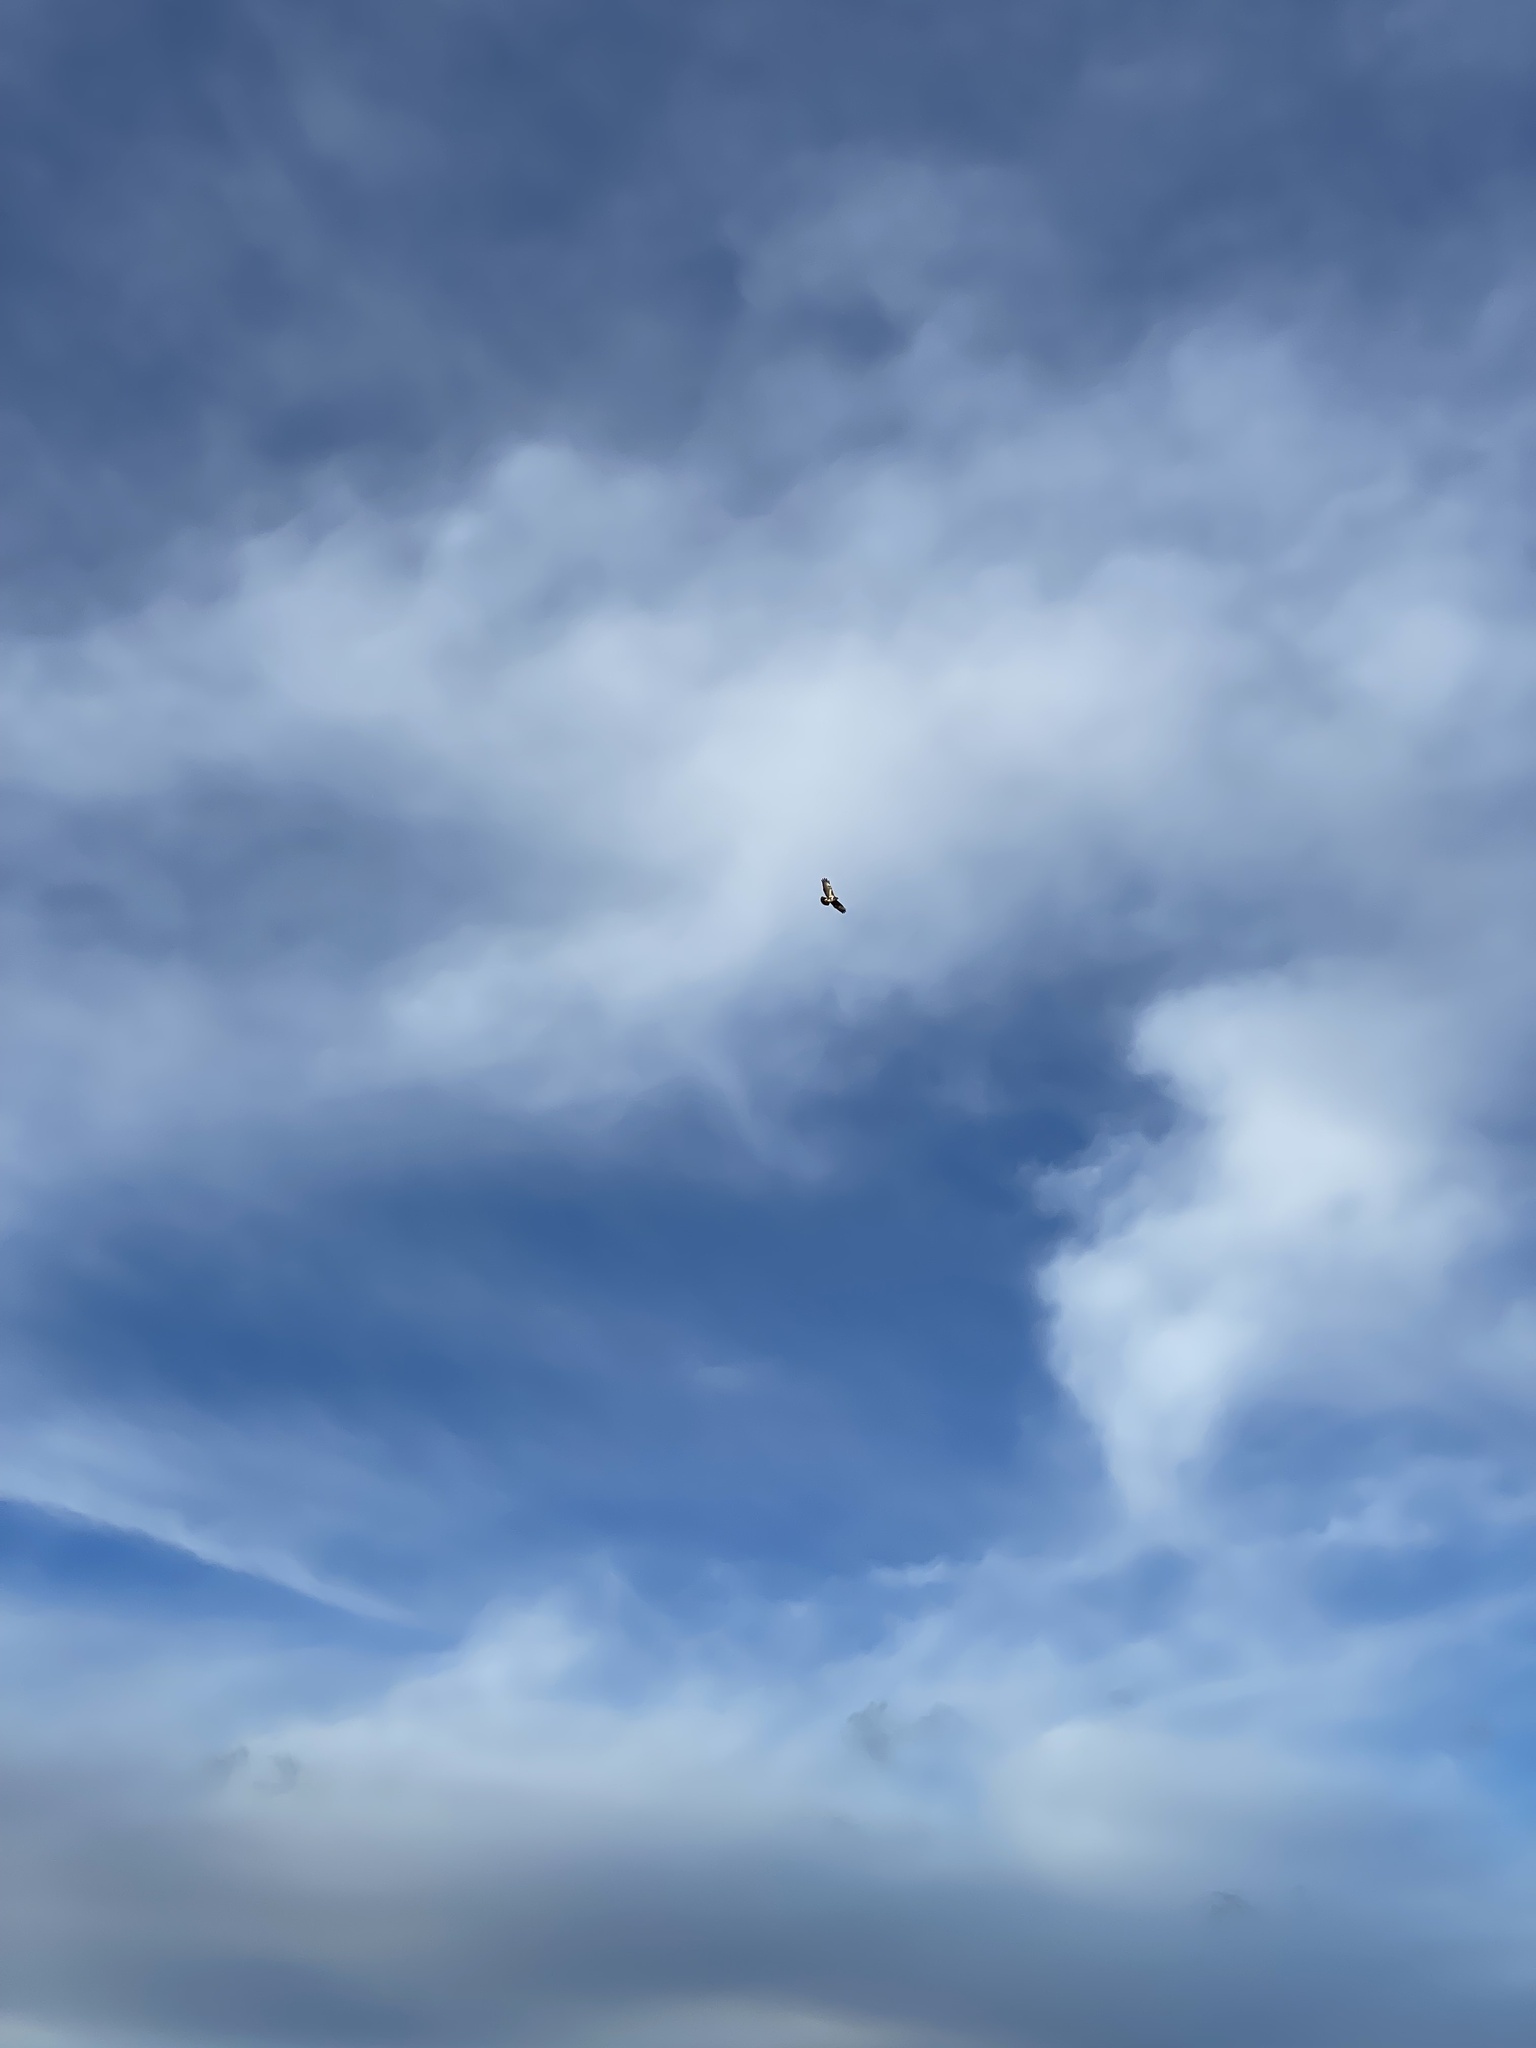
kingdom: Animalia
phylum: Chordata
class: Aves
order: Accipitriformes
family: Accipitridae
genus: Buteo
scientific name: Buteo buteo
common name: Common buzzard
